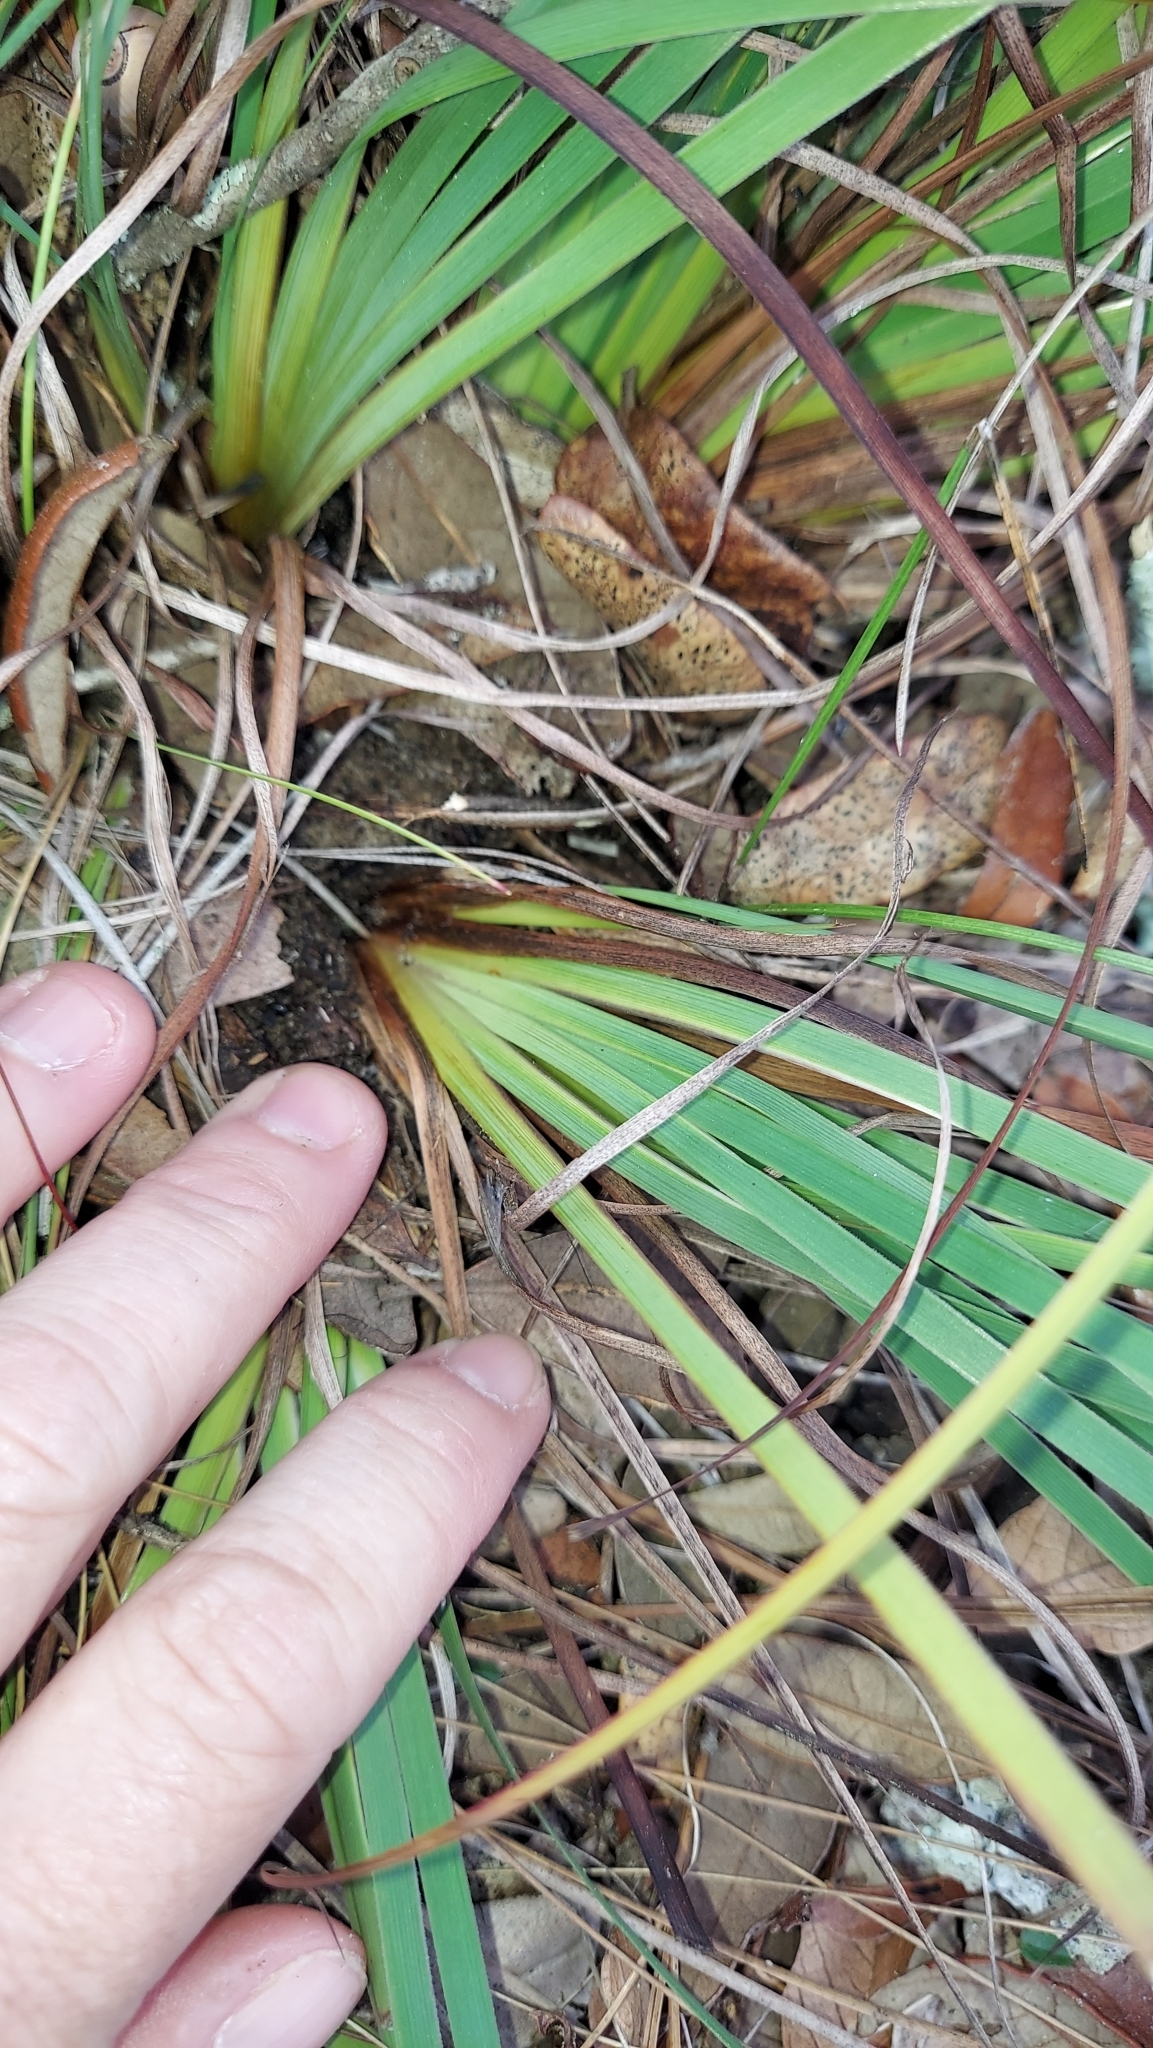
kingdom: Plantae
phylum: Tracheophyta
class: Liliopsida
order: Asparagales
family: Iridaceae
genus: Sisyrinchium
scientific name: Sisyrinchium xerophyllum
